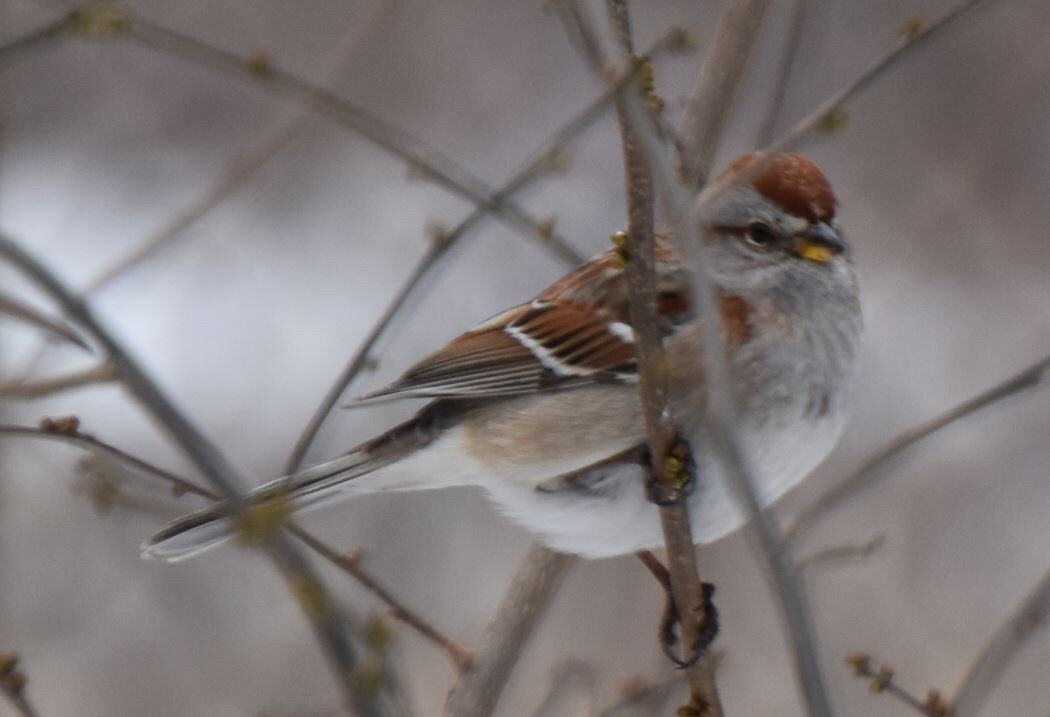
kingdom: Animalia
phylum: Chordata
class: Aves
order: Passeriformes
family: Passerellidae
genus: Spizelloides
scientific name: Spizelloides arborea
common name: American tree sparrow
